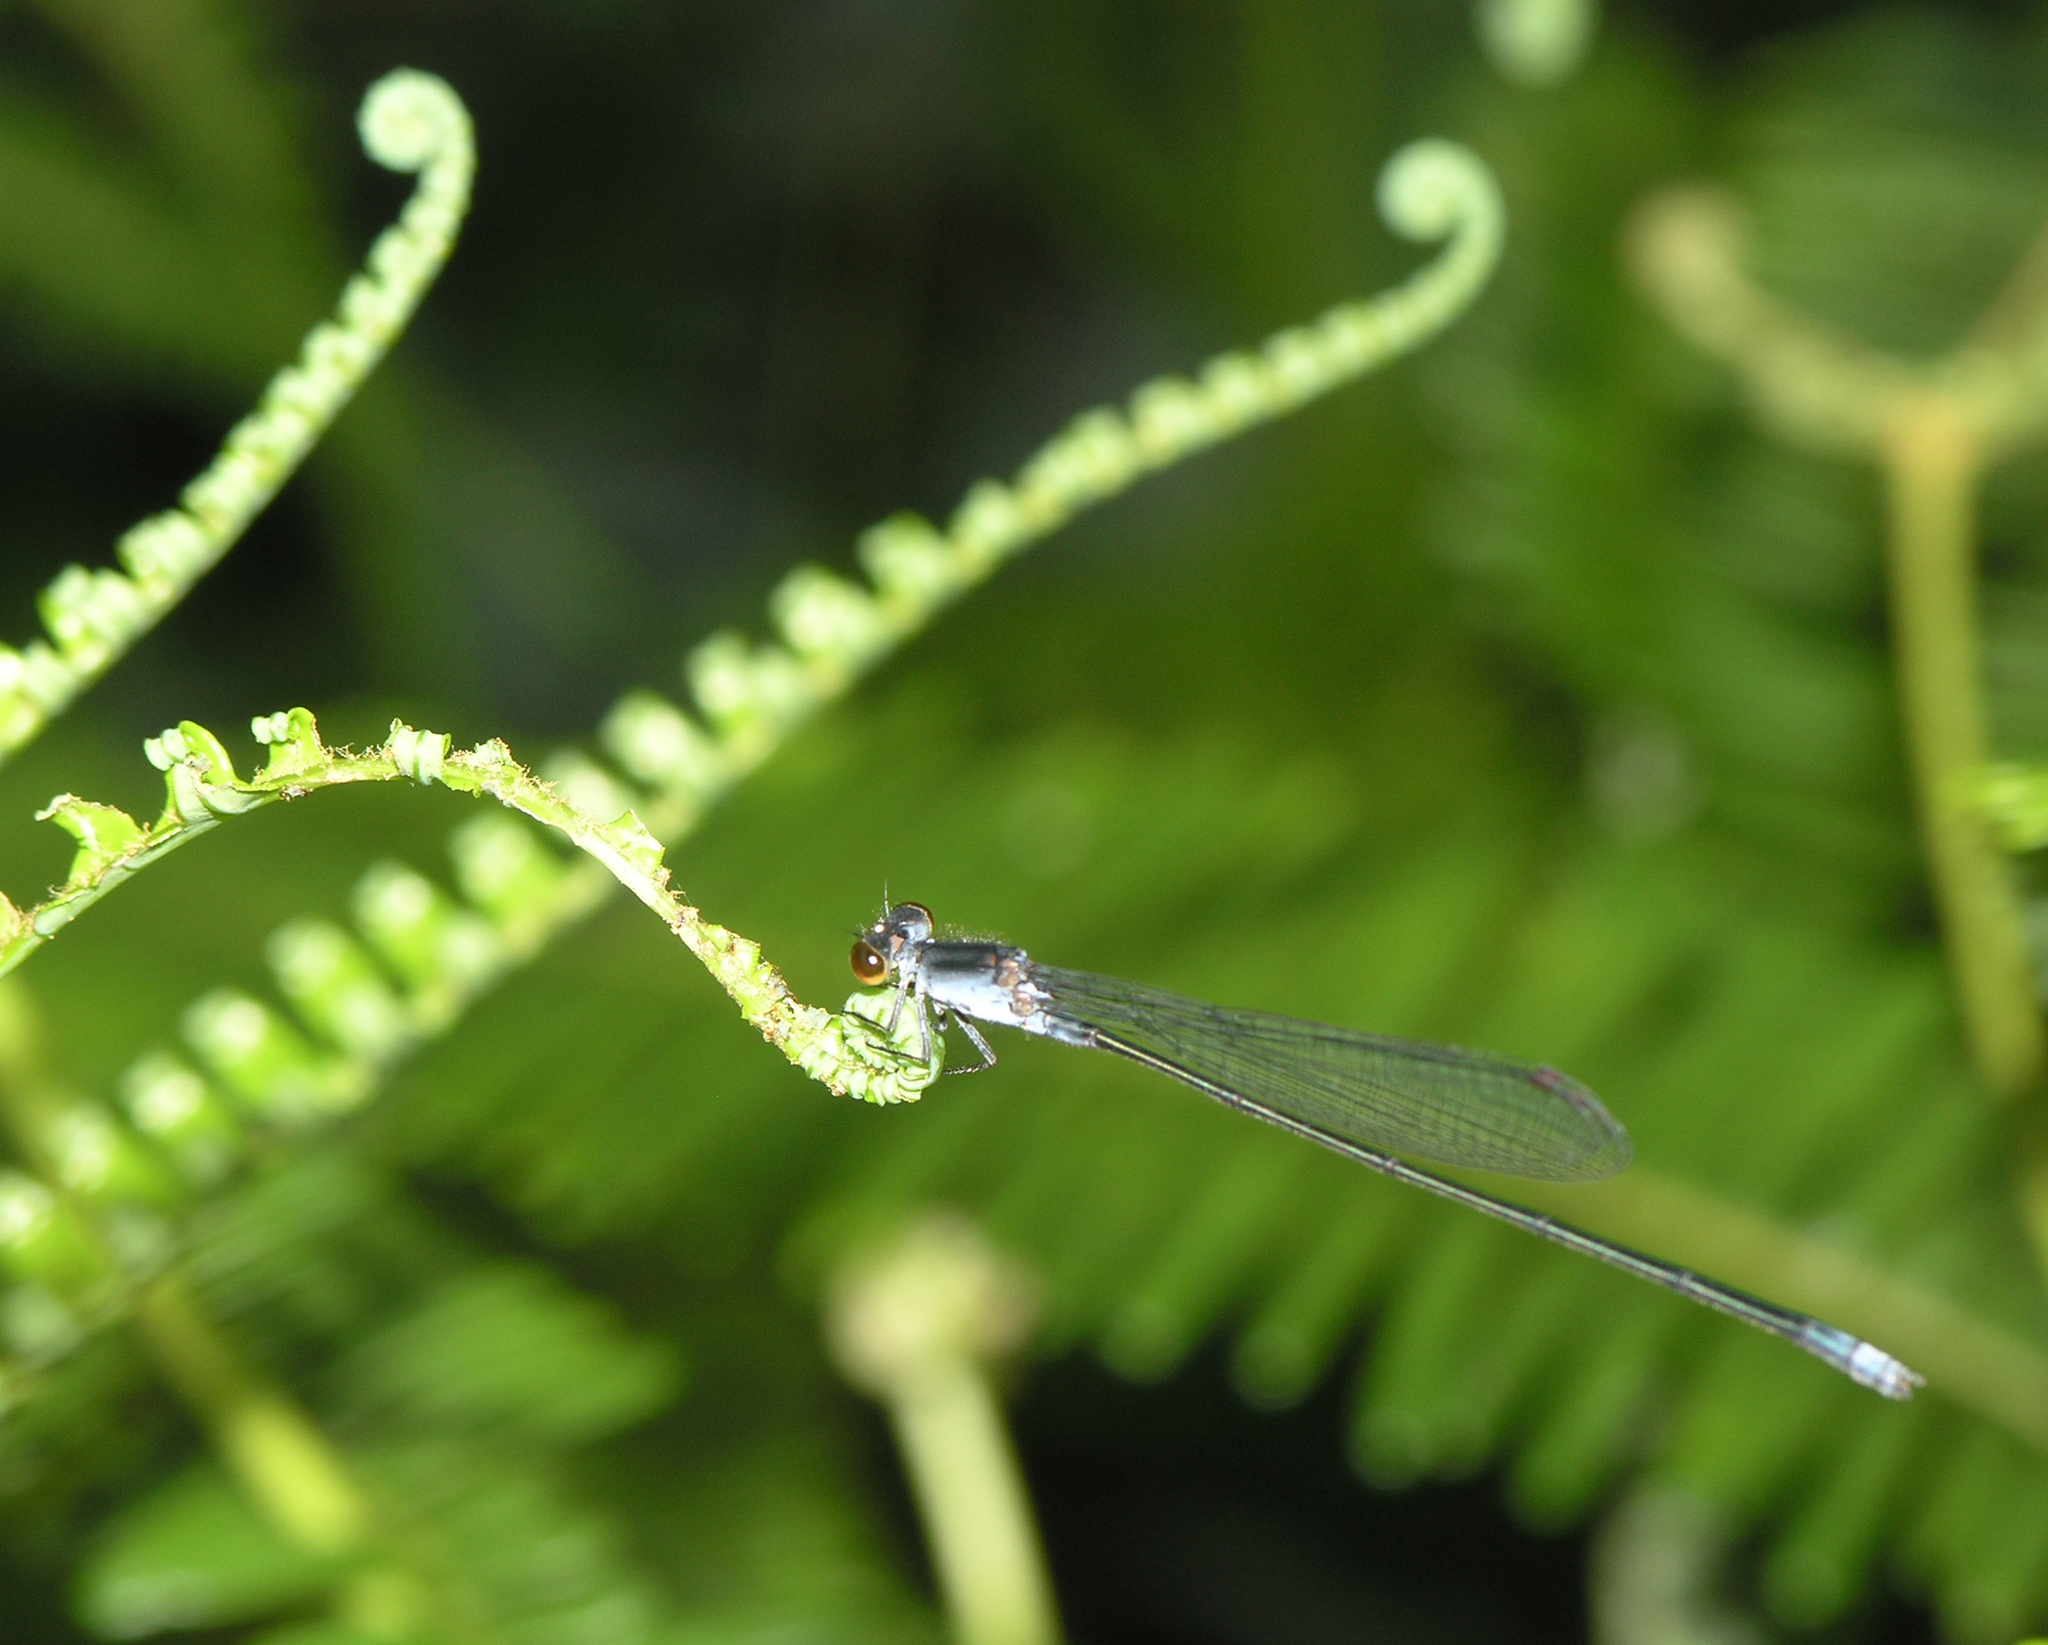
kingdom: Animalia
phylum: Arthropoda
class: Insecta
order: Odonata
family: Coenagrionidae
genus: Pseudagrion
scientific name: Pseudagrion pruinosum
